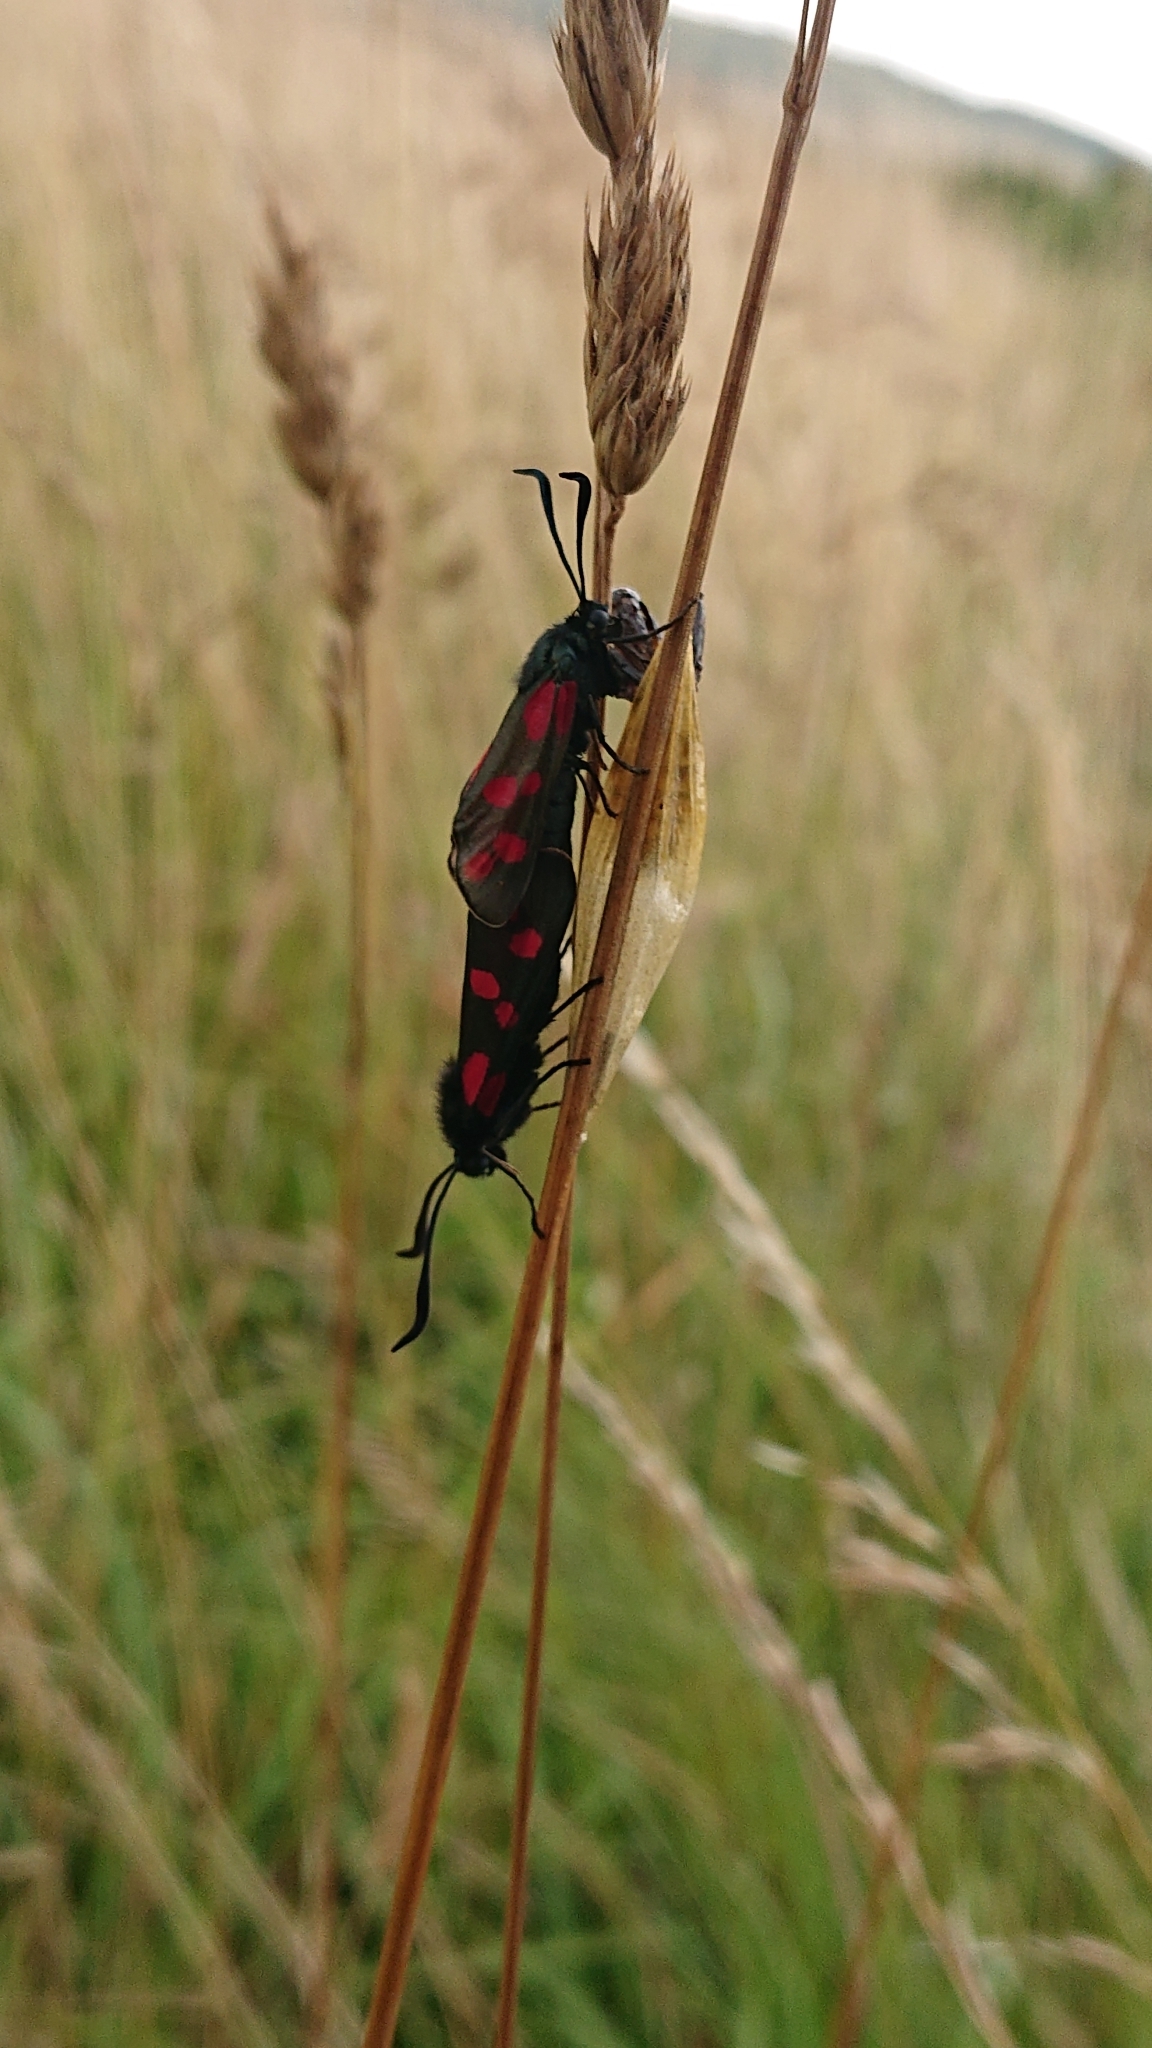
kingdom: Animalia
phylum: Arthropoda
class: Insecta
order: Lepidoptera
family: Zygaenidae
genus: Zygaena
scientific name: Zygaena filipendulae
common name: Six-spot burnet
